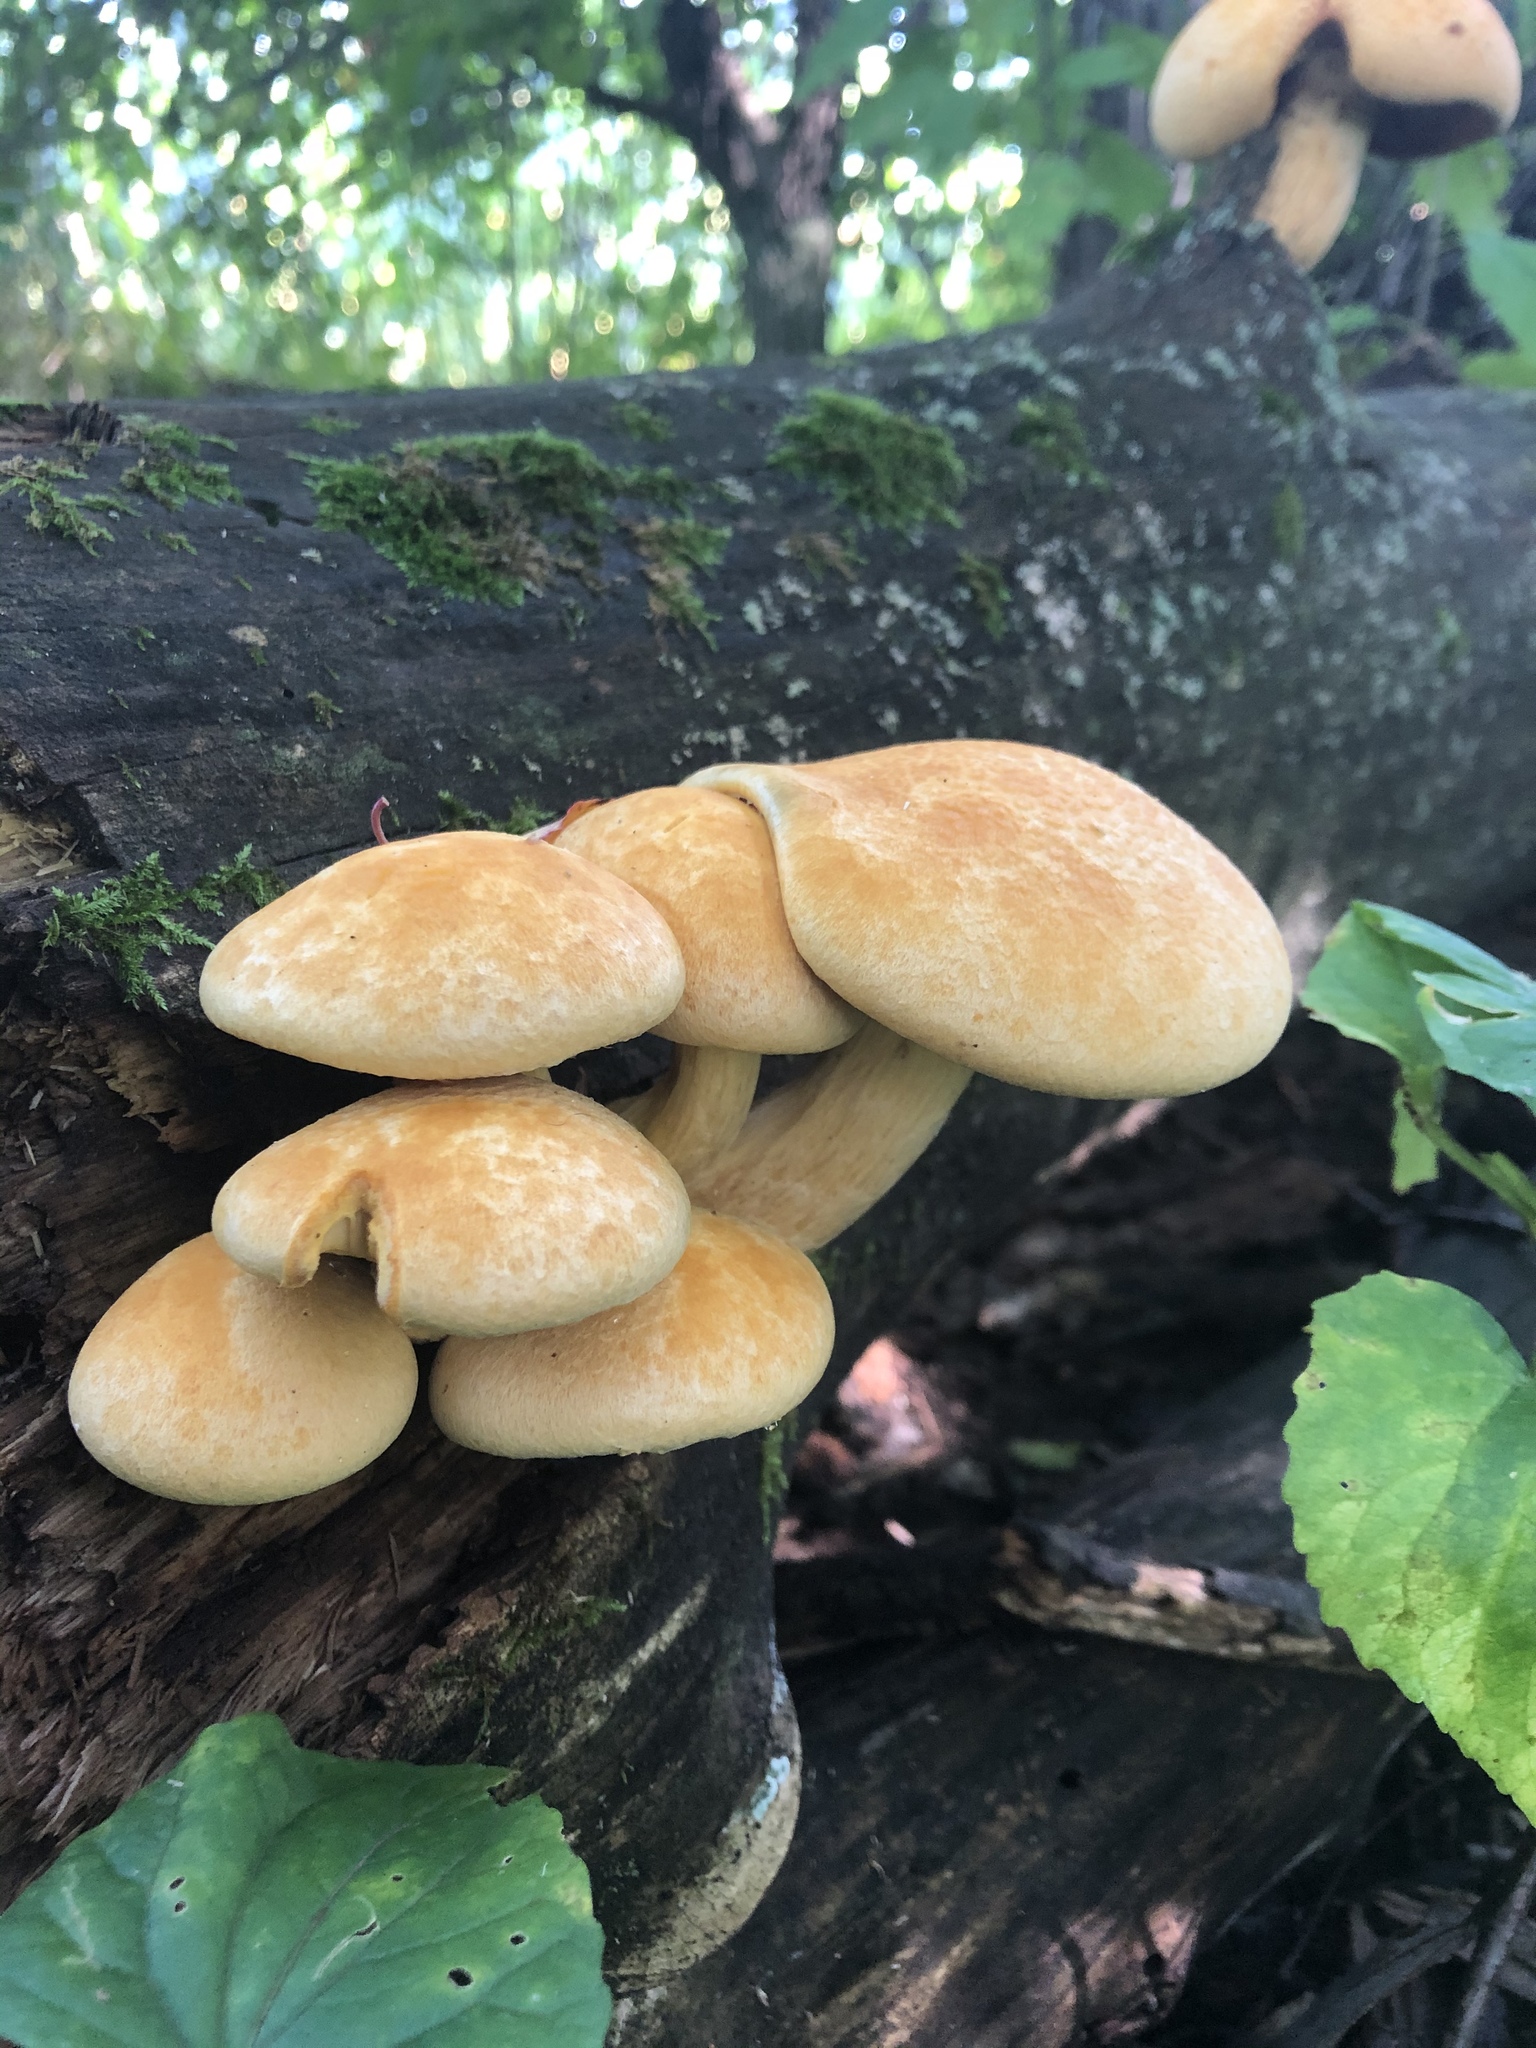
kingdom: Fungi
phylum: Basidiomycota
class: Agaricomycetes
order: Agaricales
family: Hymenogastraceae
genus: Gymnopilus
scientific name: Gymnopilus luteus
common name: Yellow gymnopilus
